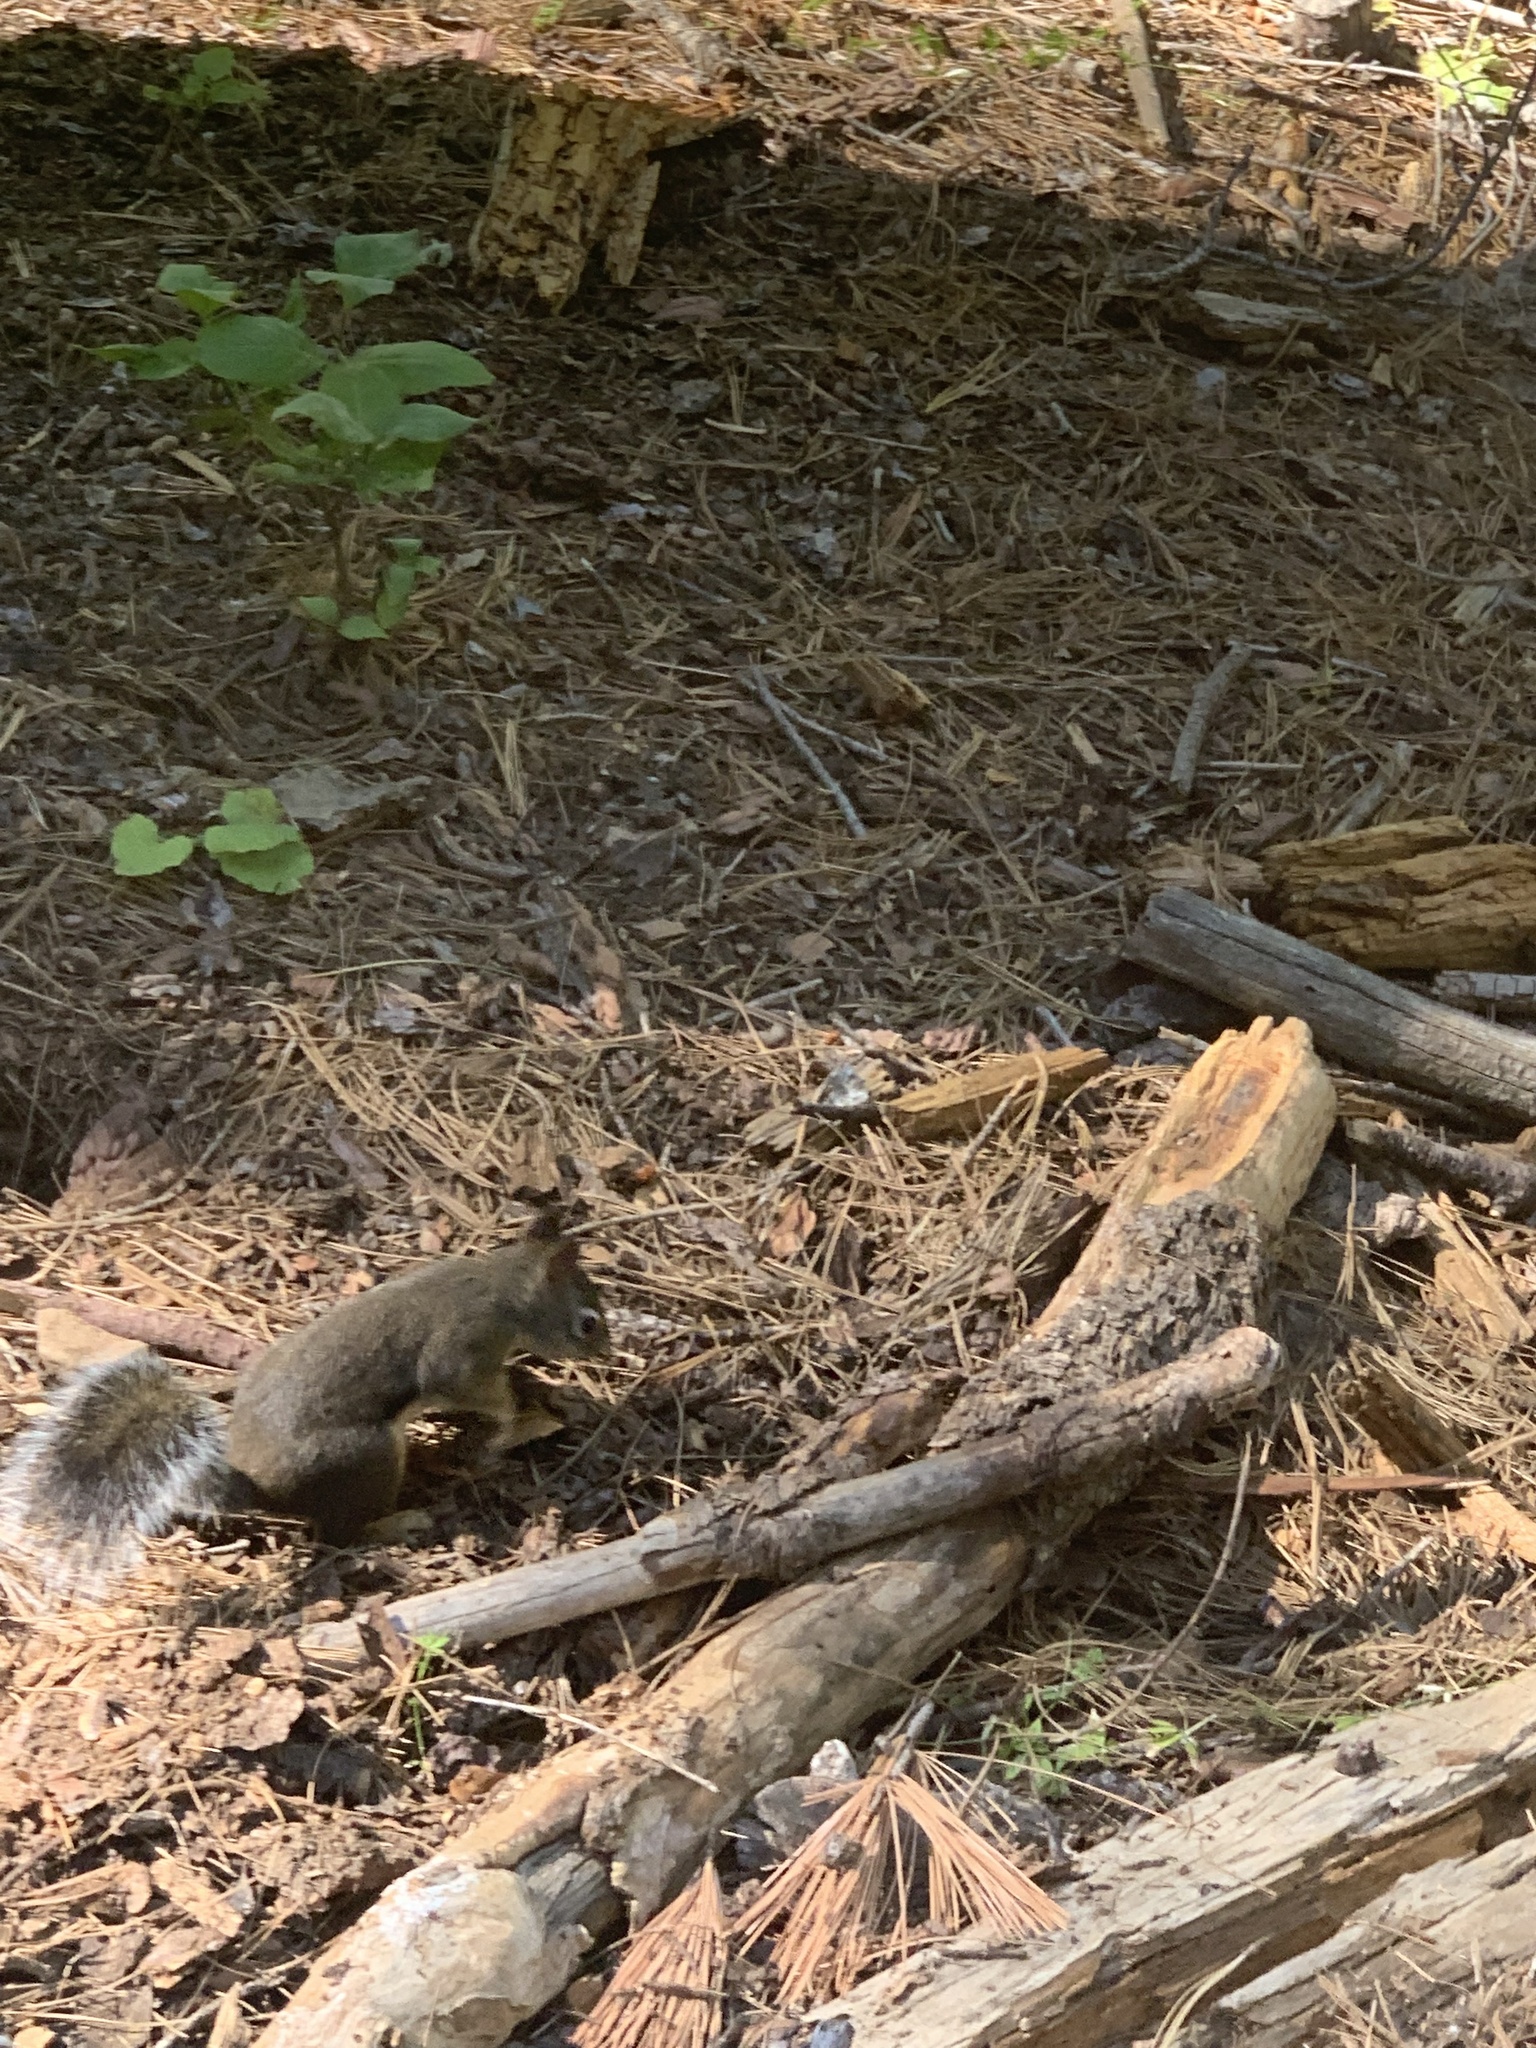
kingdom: Animalia
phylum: Chordata
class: Mammalia
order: Rodentia
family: Sciuridae
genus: Tamiasciurus
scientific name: Tamiasciurus douglasii
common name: Douglas's squirrel
